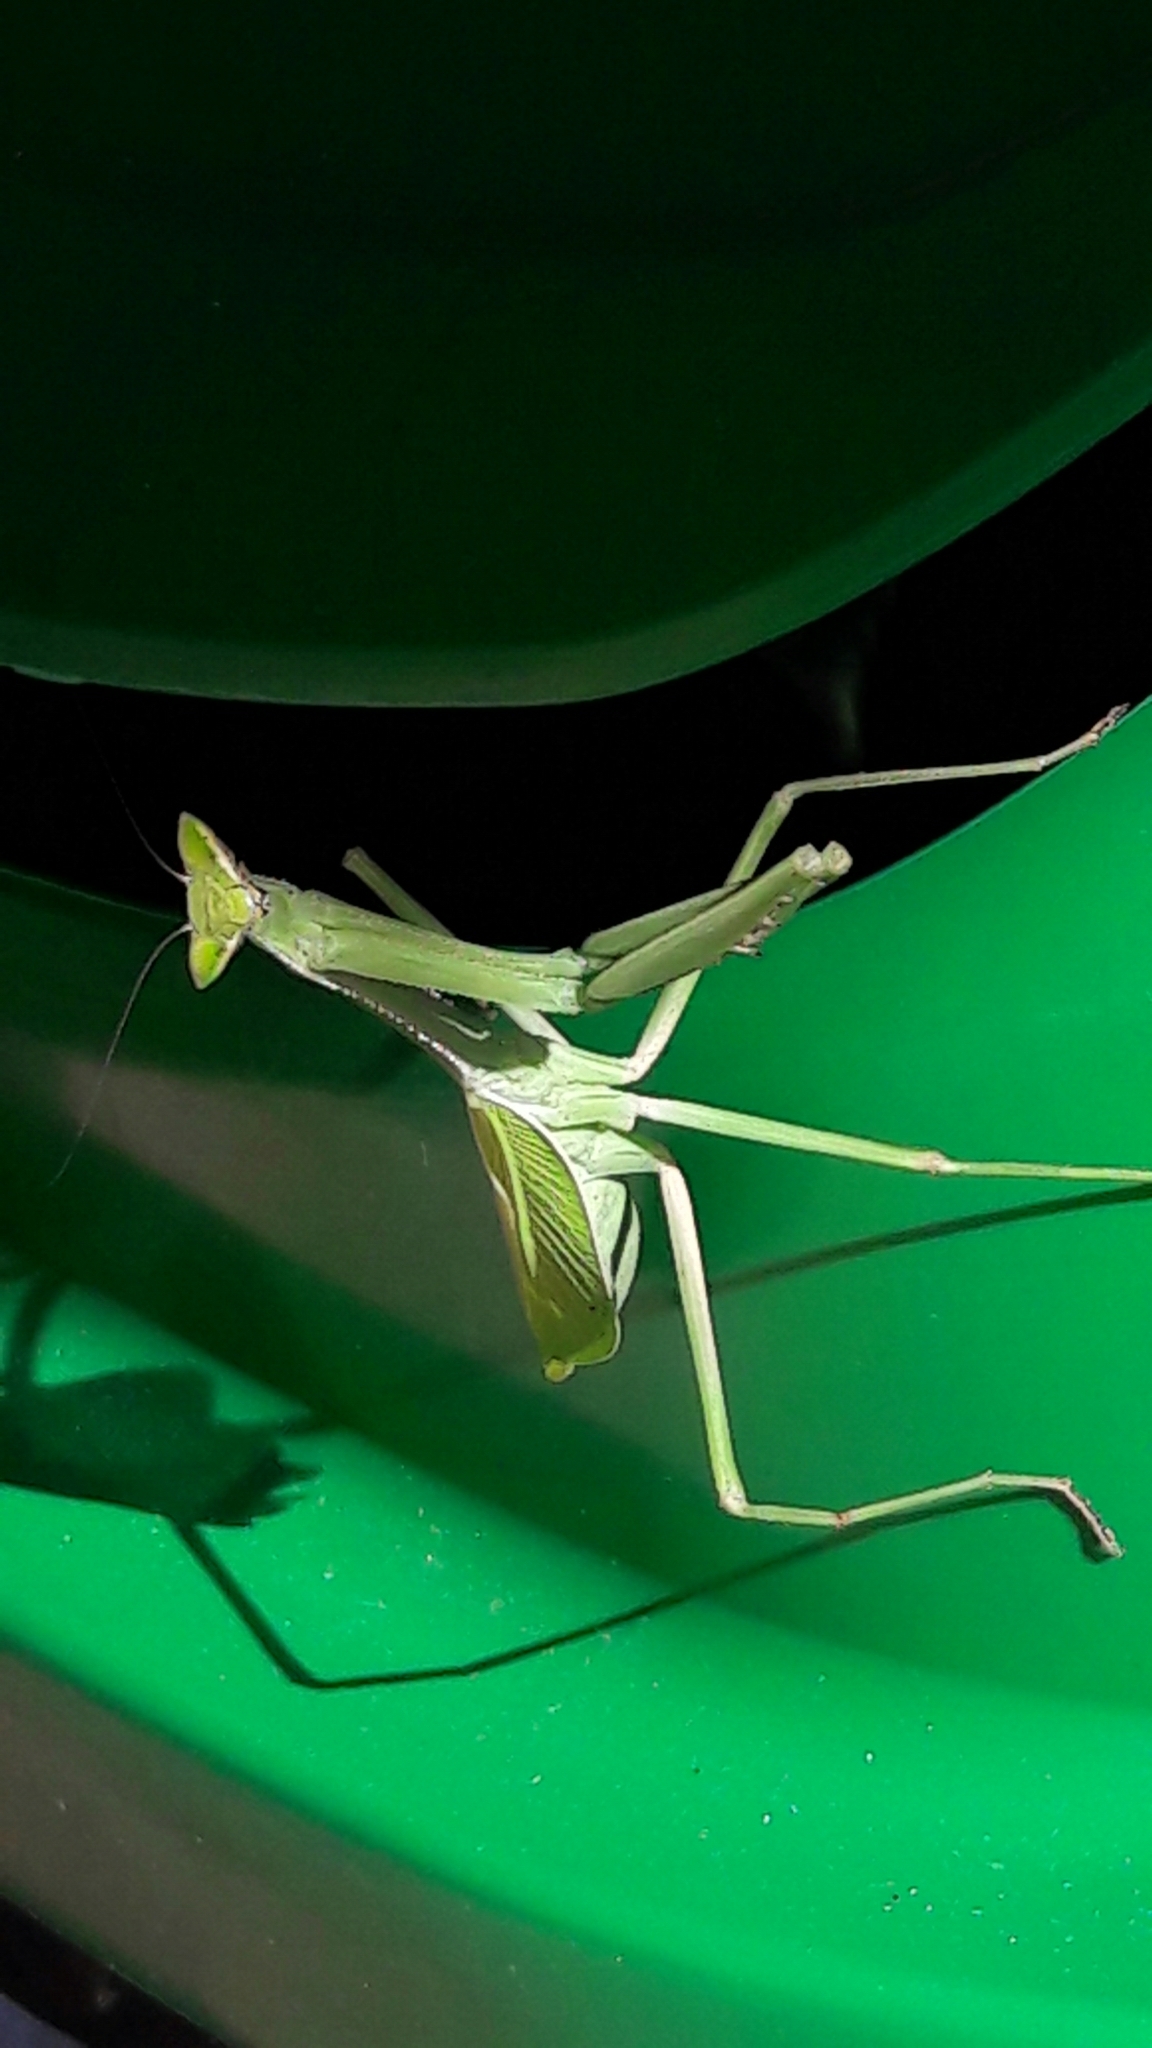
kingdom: Animalia
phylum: Arthropoda
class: Insecta
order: Mantodea
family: Mantidae
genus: Oxyopsis
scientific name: Oxyopsis
